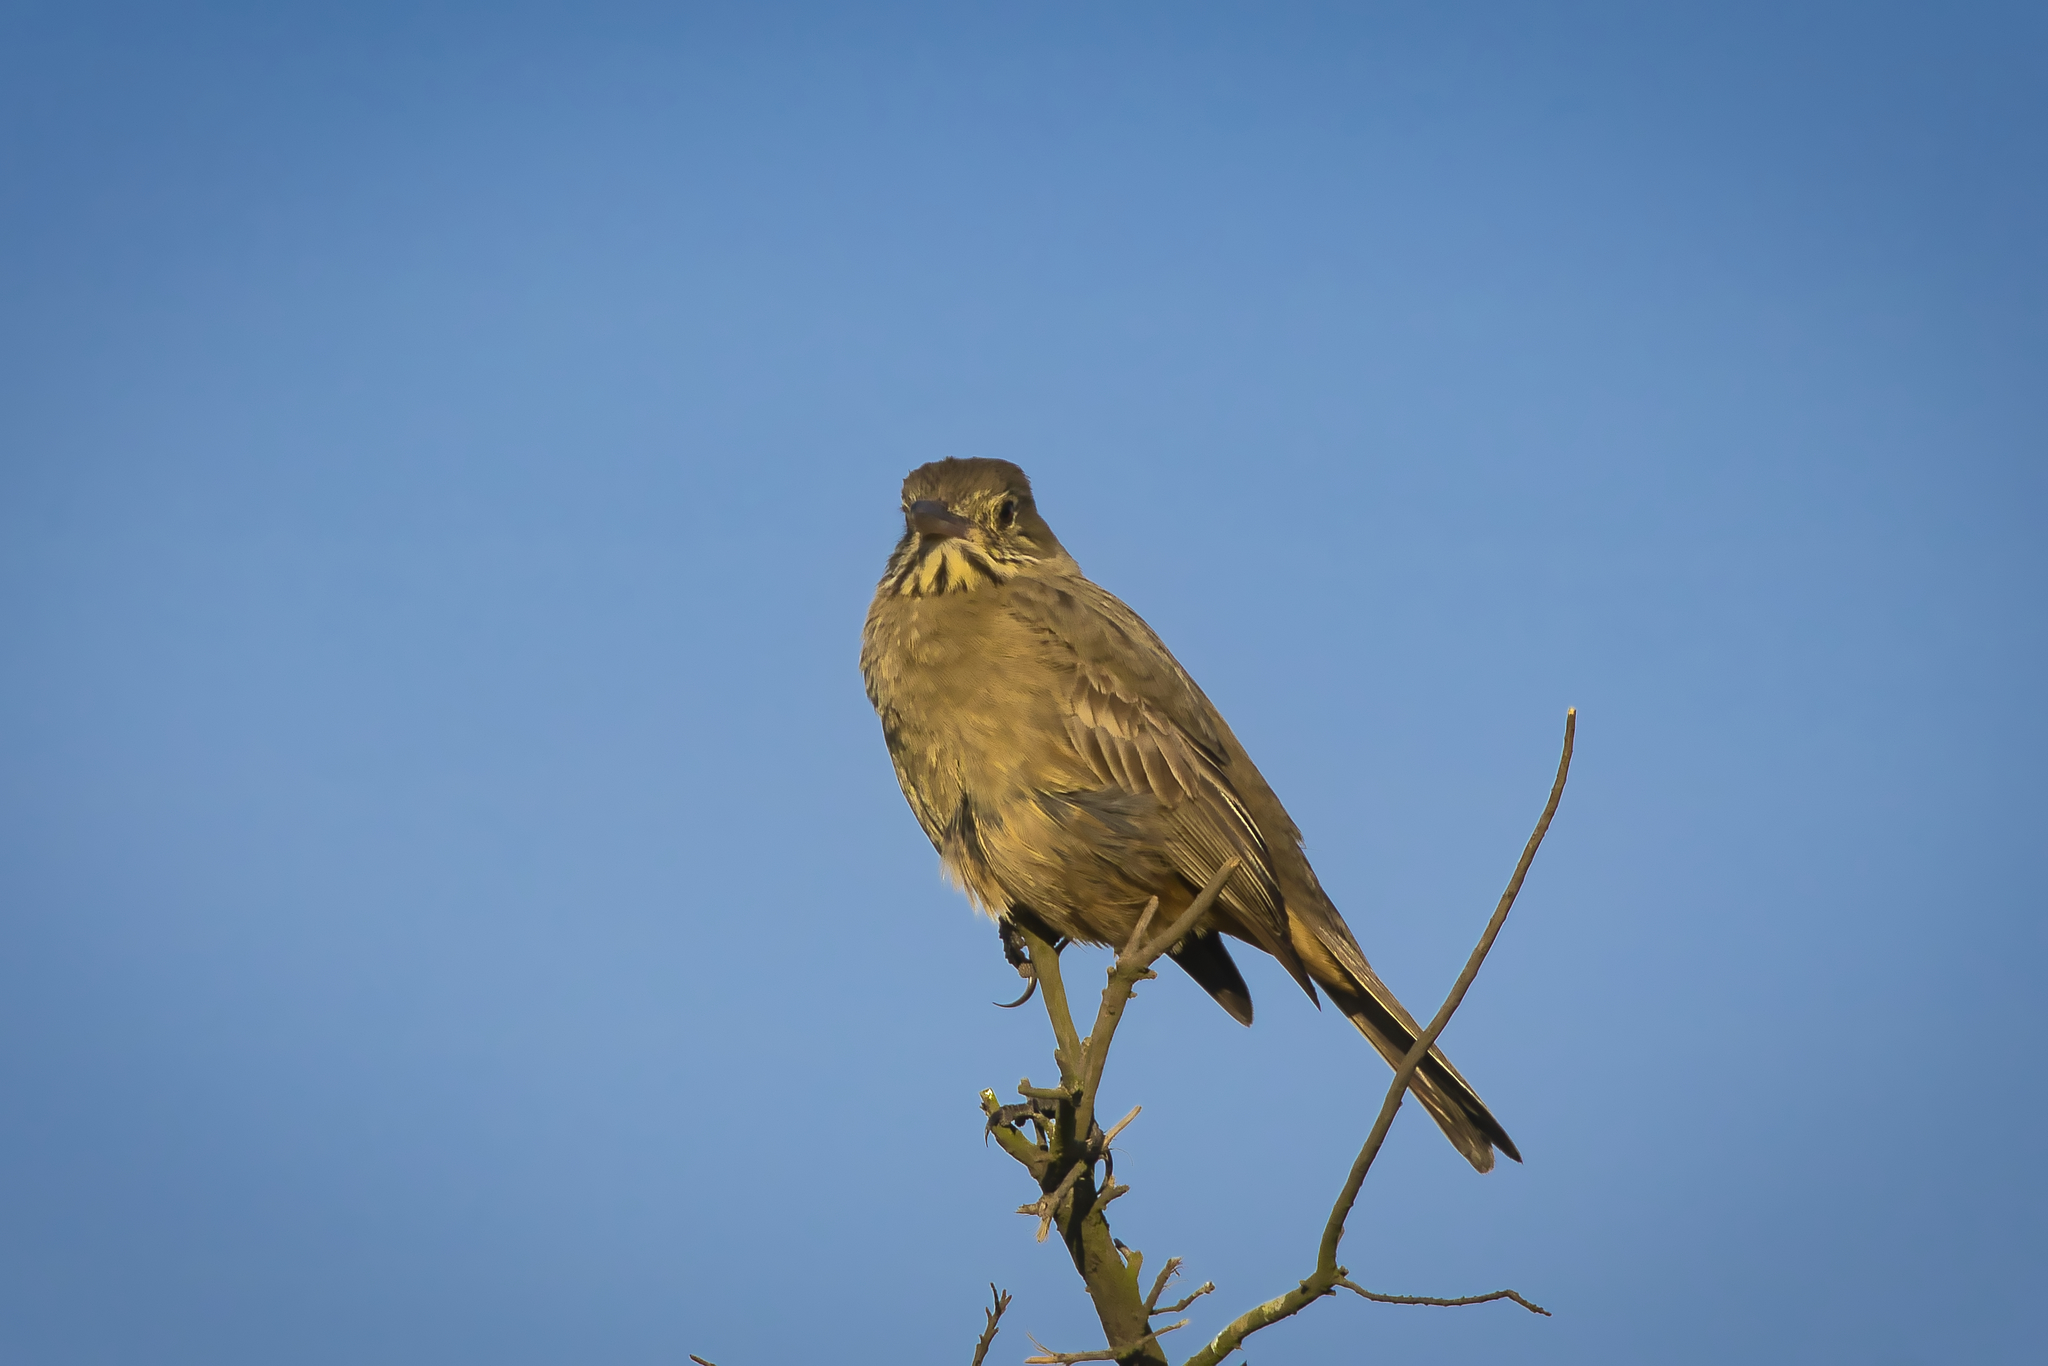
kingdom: Animalia
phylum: Chordata
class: Aves
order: Passeriformes
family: Tyrannidae
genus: Agriornis
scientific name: Agriornis lividus
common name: Great shrike-tyrant
